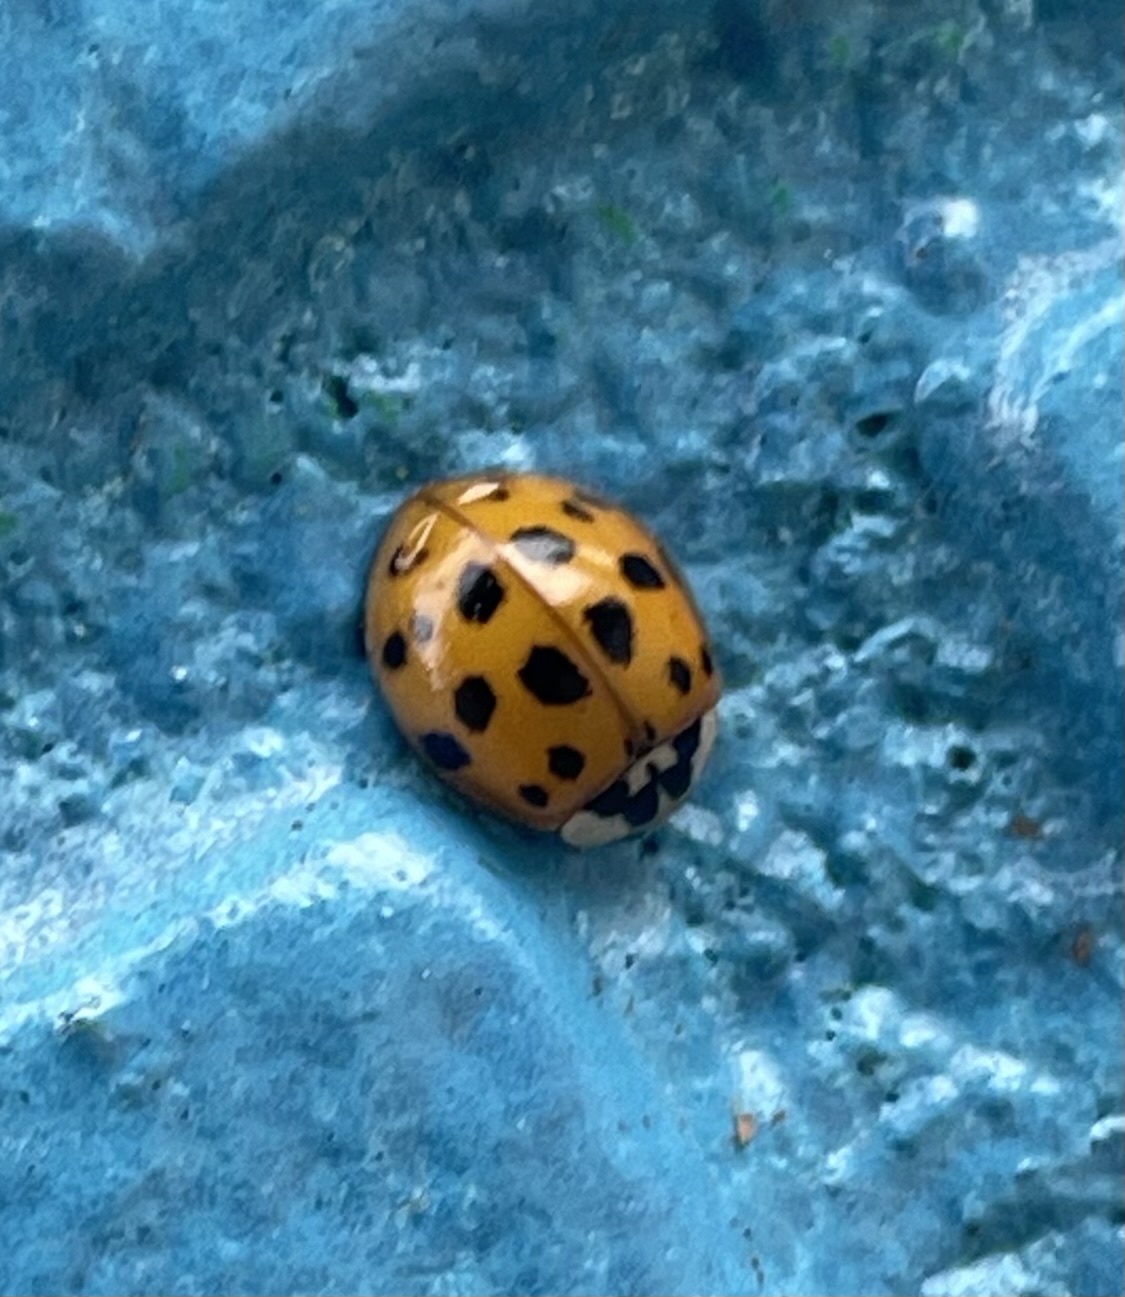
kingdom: Animalia
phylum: Arthropoda
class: Insecta
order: Coleoptera
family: Coccinellidae
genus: Harmonia
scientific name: Harmonia axyridis
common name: Harlequin ladybird
